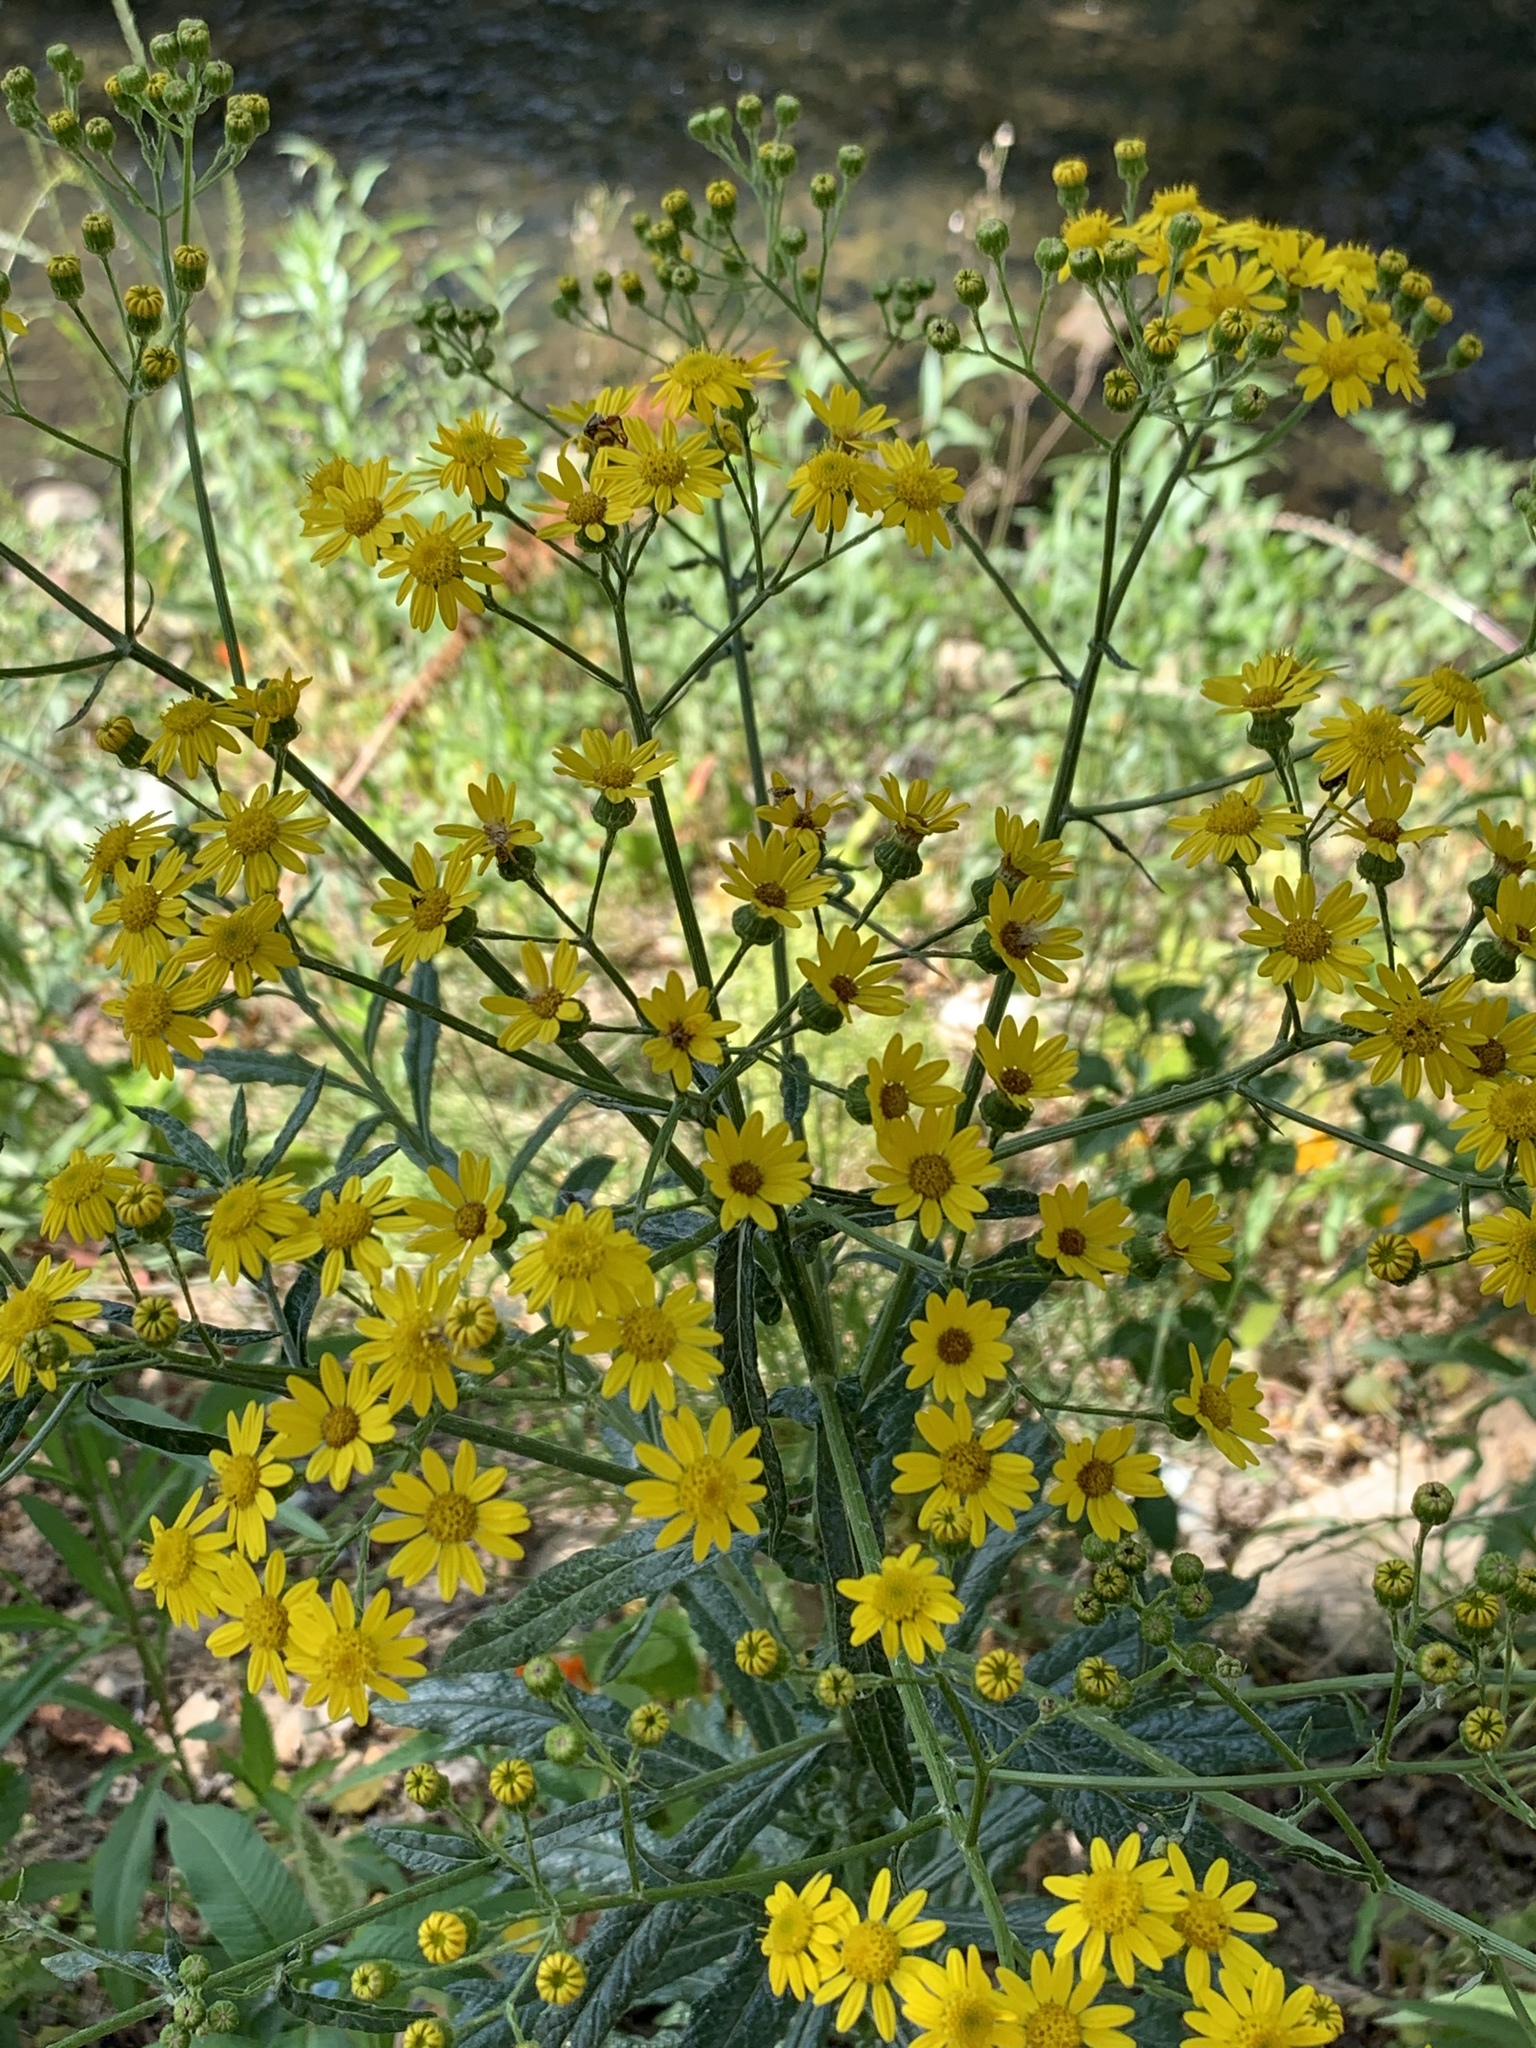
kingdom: Plantae
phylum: Tracheophyta
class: Magnoliopsida
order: Asterales
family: Asteraceae
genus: Senecio
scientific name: Senecio pterophorus
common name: Shoddy ragwort
